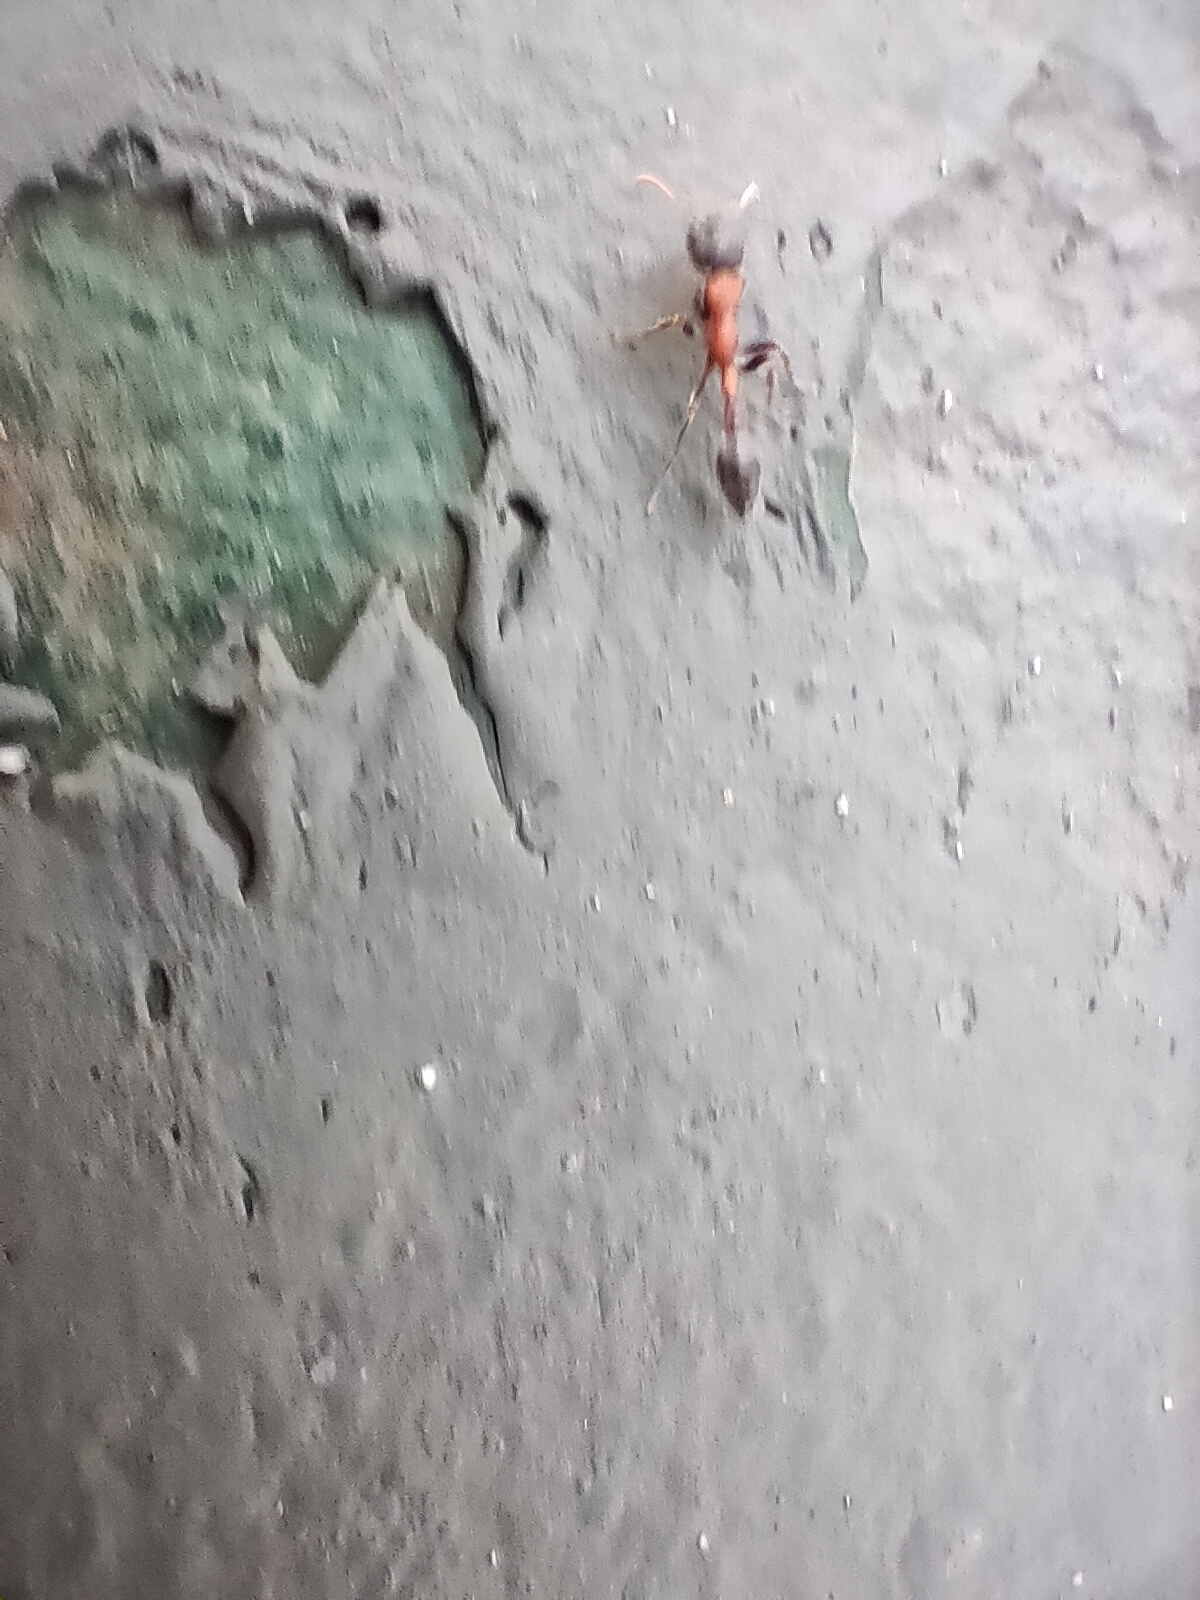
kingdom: Animalia
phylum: Arthropoda
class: Insecta
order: Hymenoptera
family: Formicidae
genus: Tetraponera
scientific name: Tetraponera rufonigra
